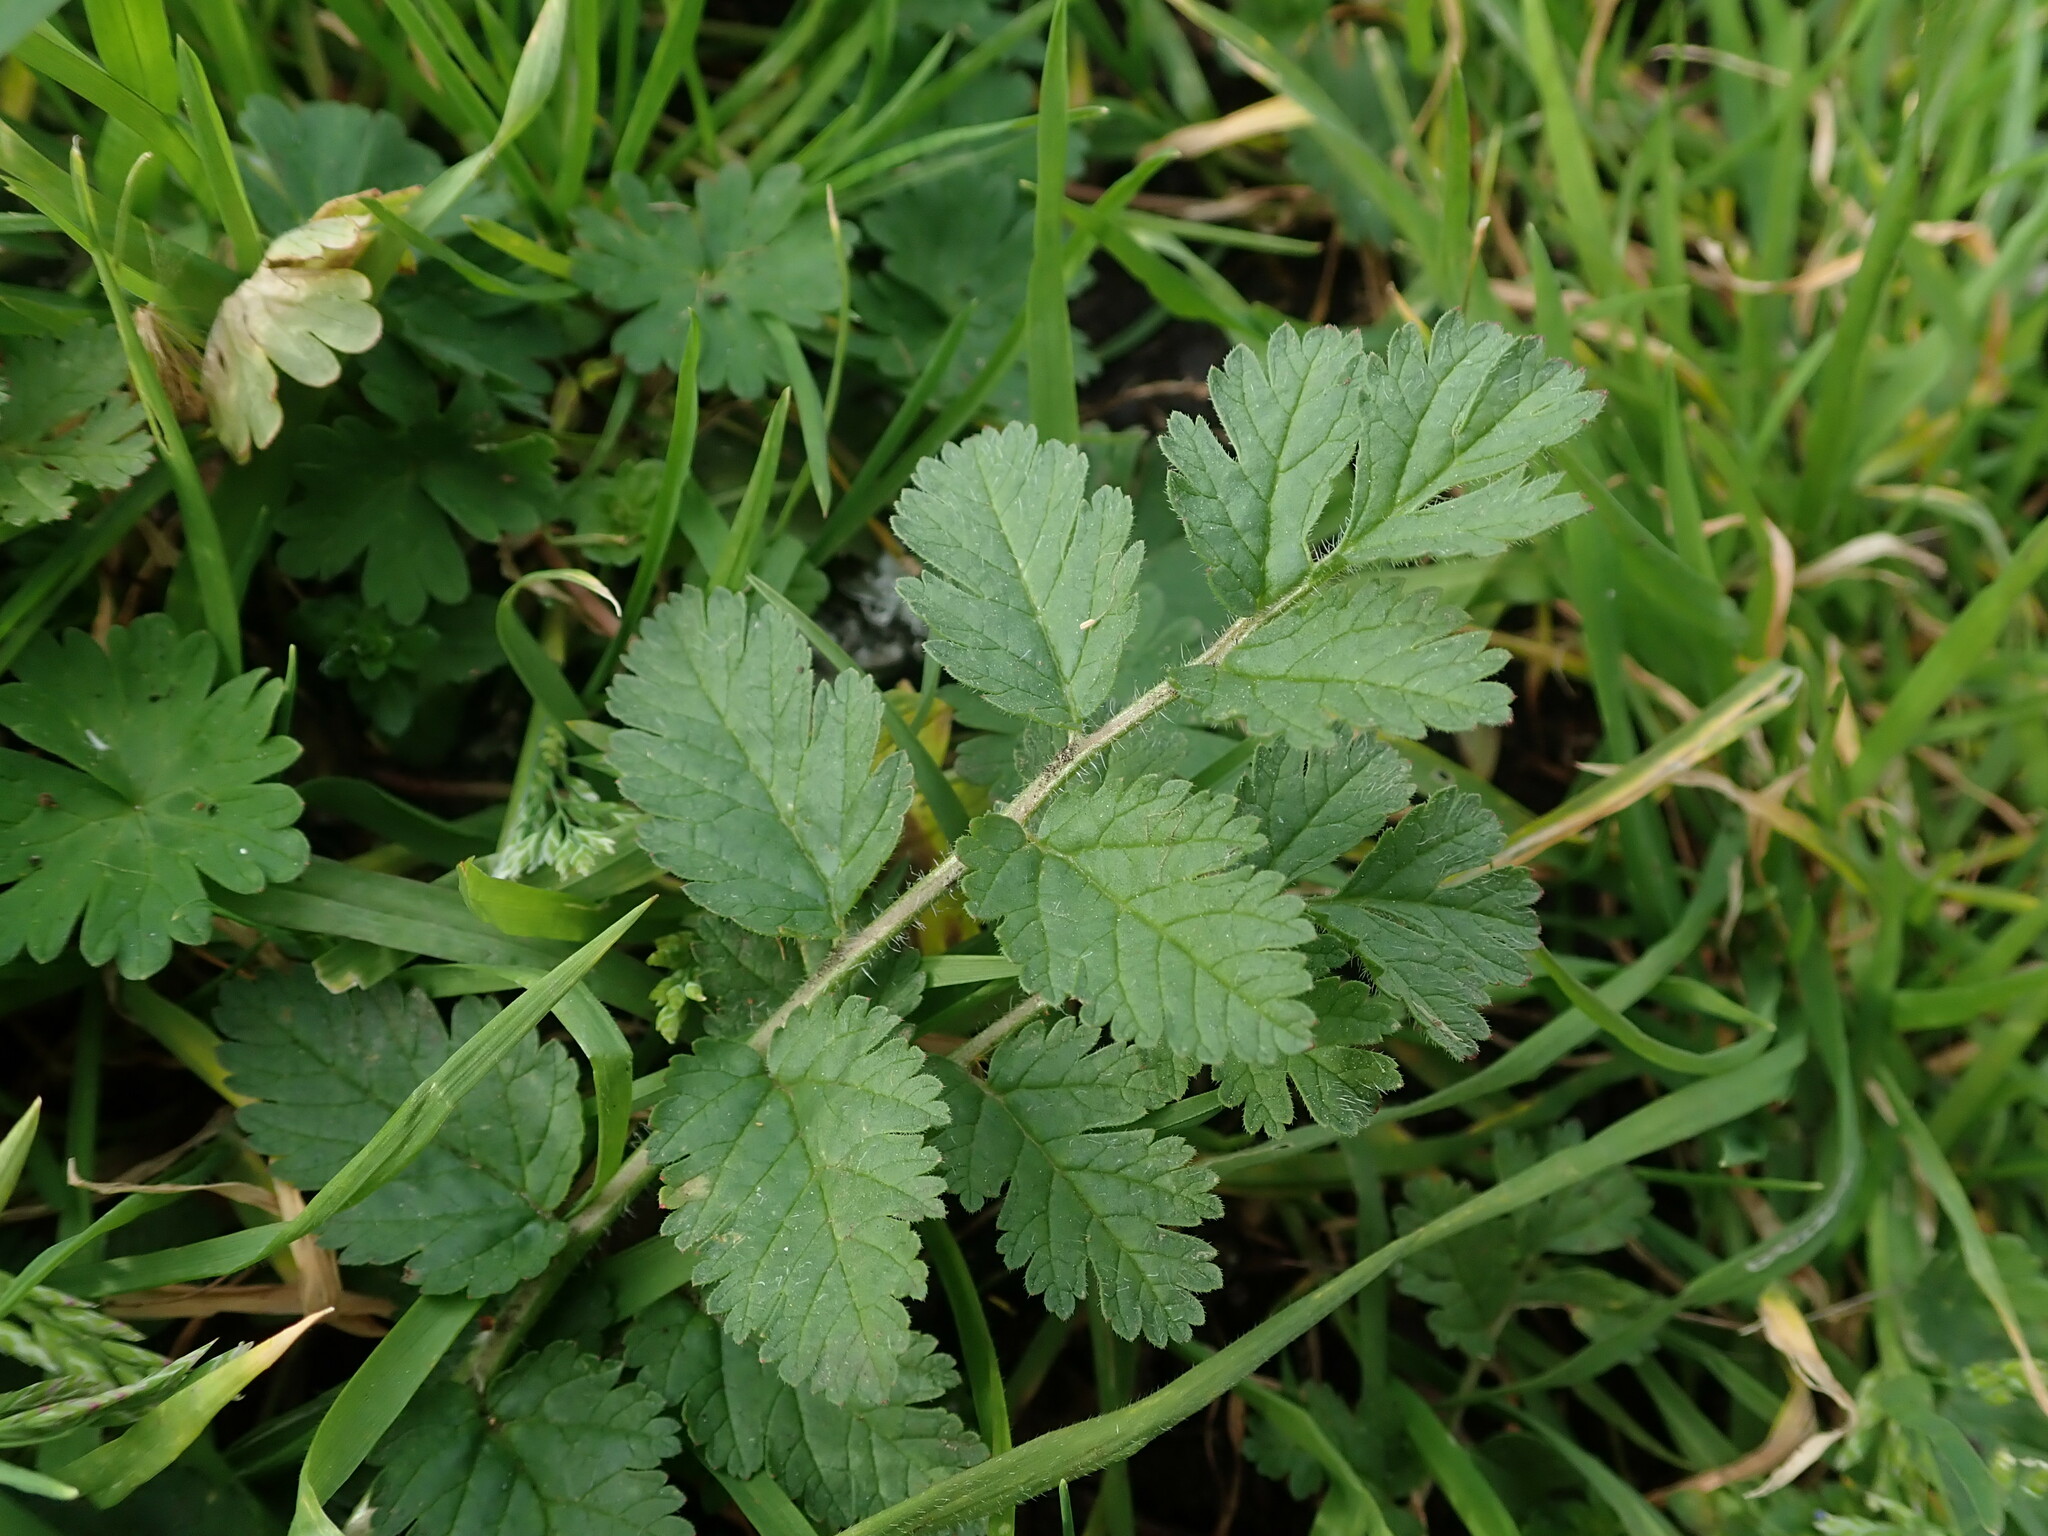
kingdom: Plantae
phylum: Tracheophyta
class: Magnoliopsida
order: Geraniales
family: Geraniaceae
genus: Erodium
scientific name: Erodium moschatum
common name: Musk stork's-bill
